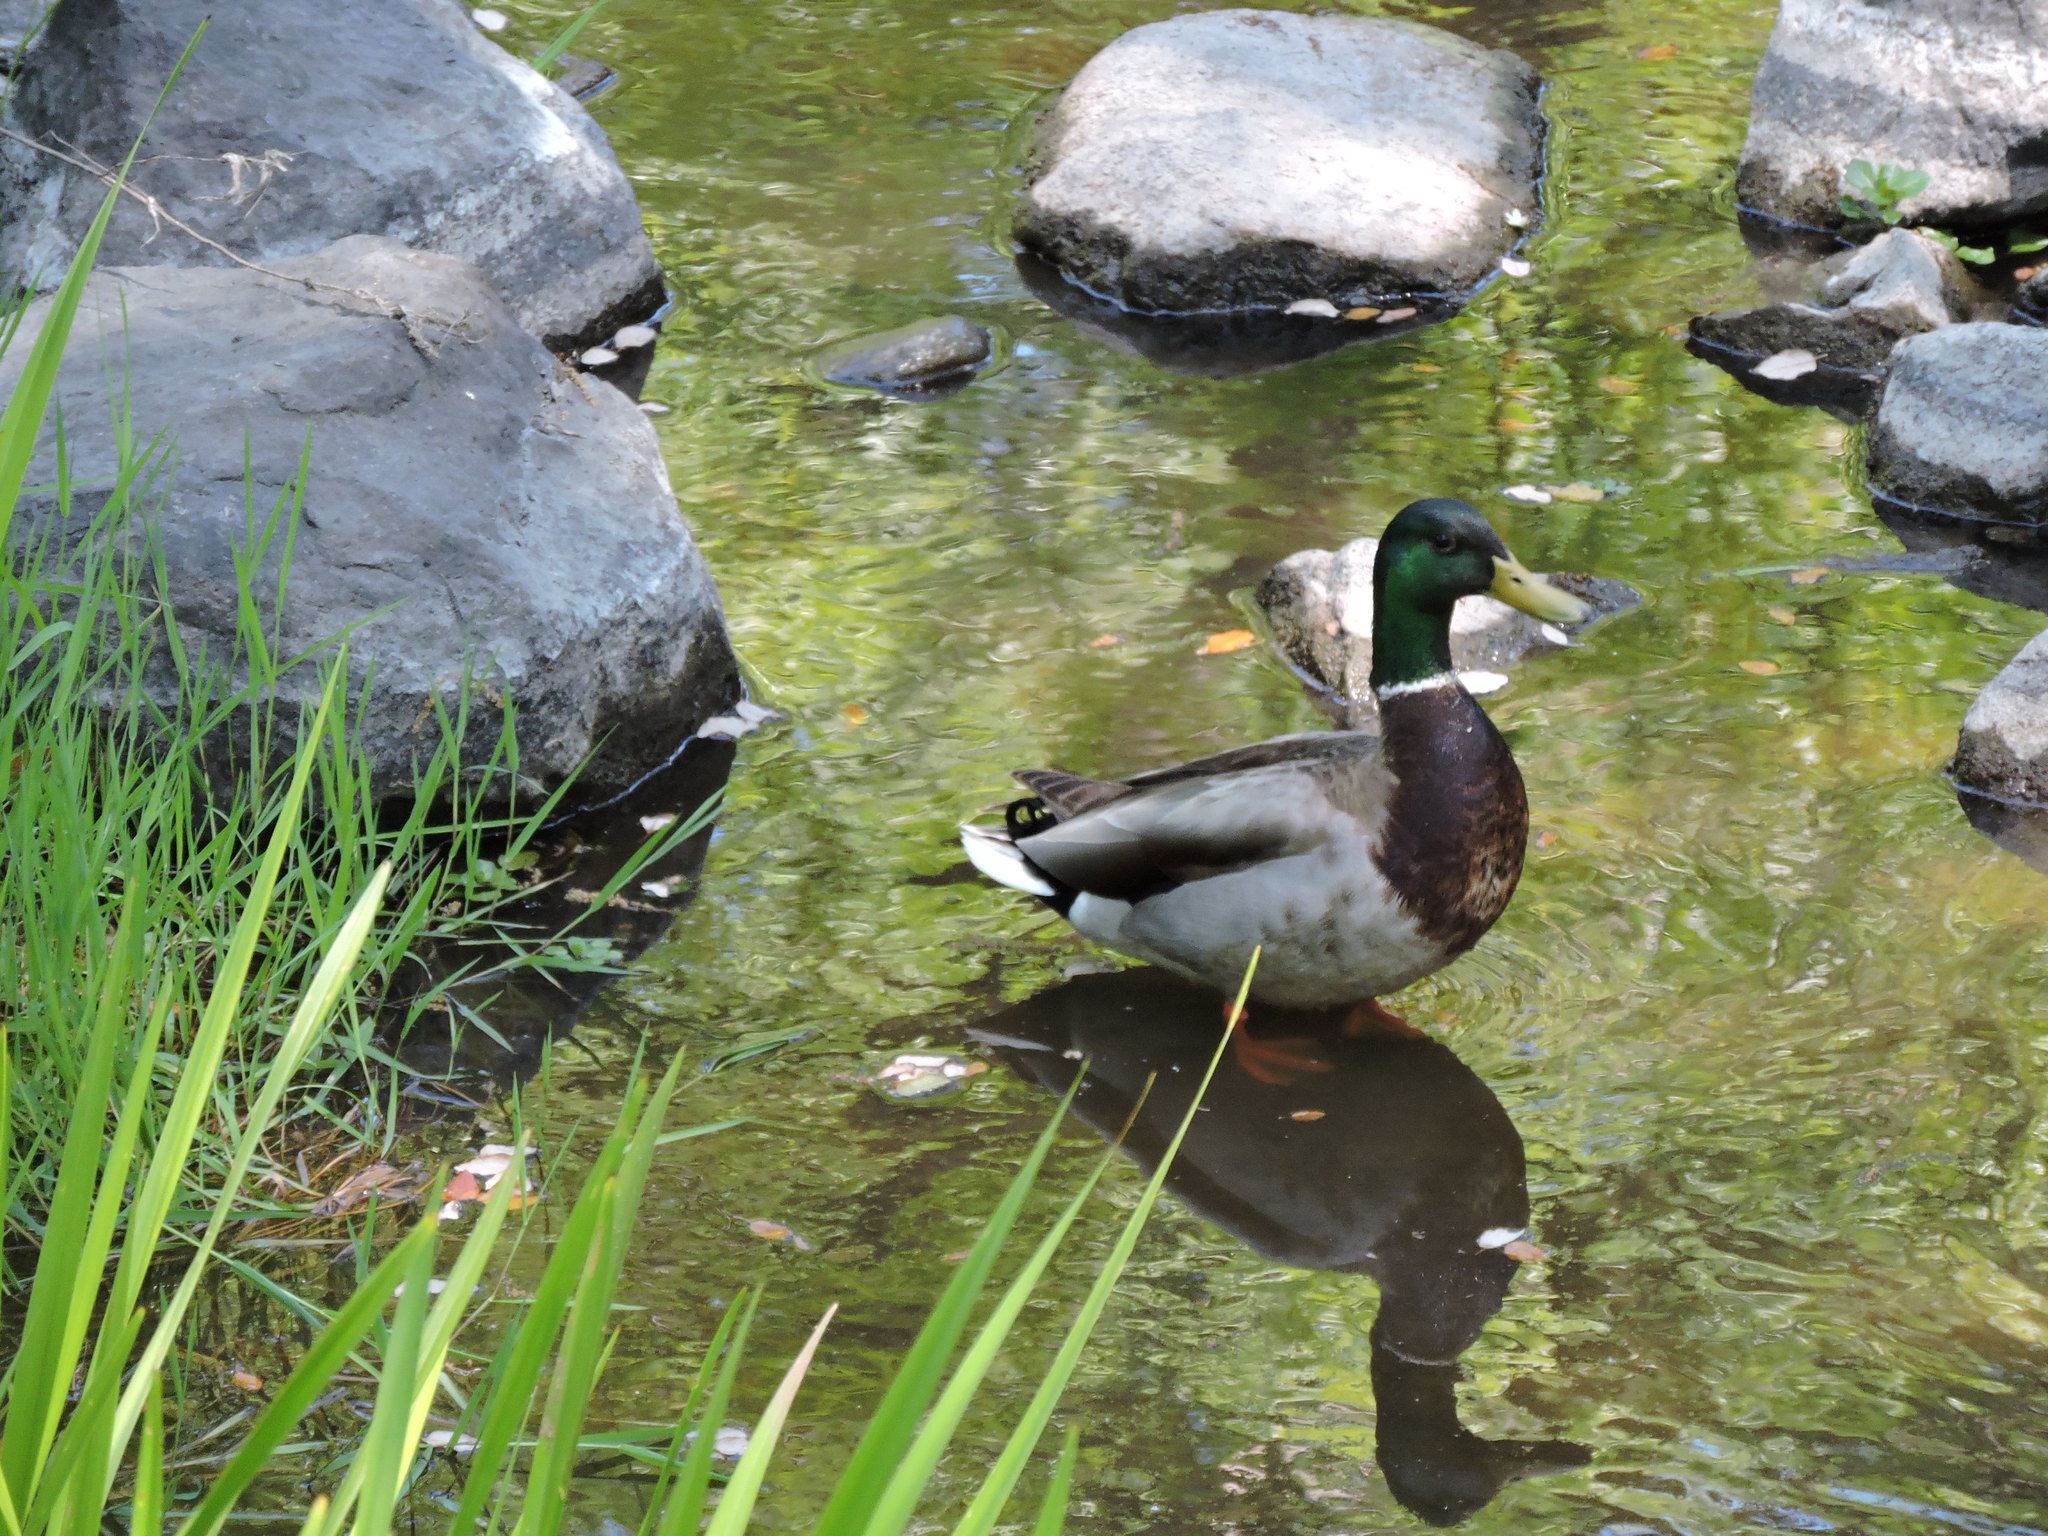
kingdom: Animalia
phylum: Chordata
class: Aves
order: Anseriformes
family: Anatidae
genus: Anas
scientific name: Anas platyrhynchos
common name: Mallard
